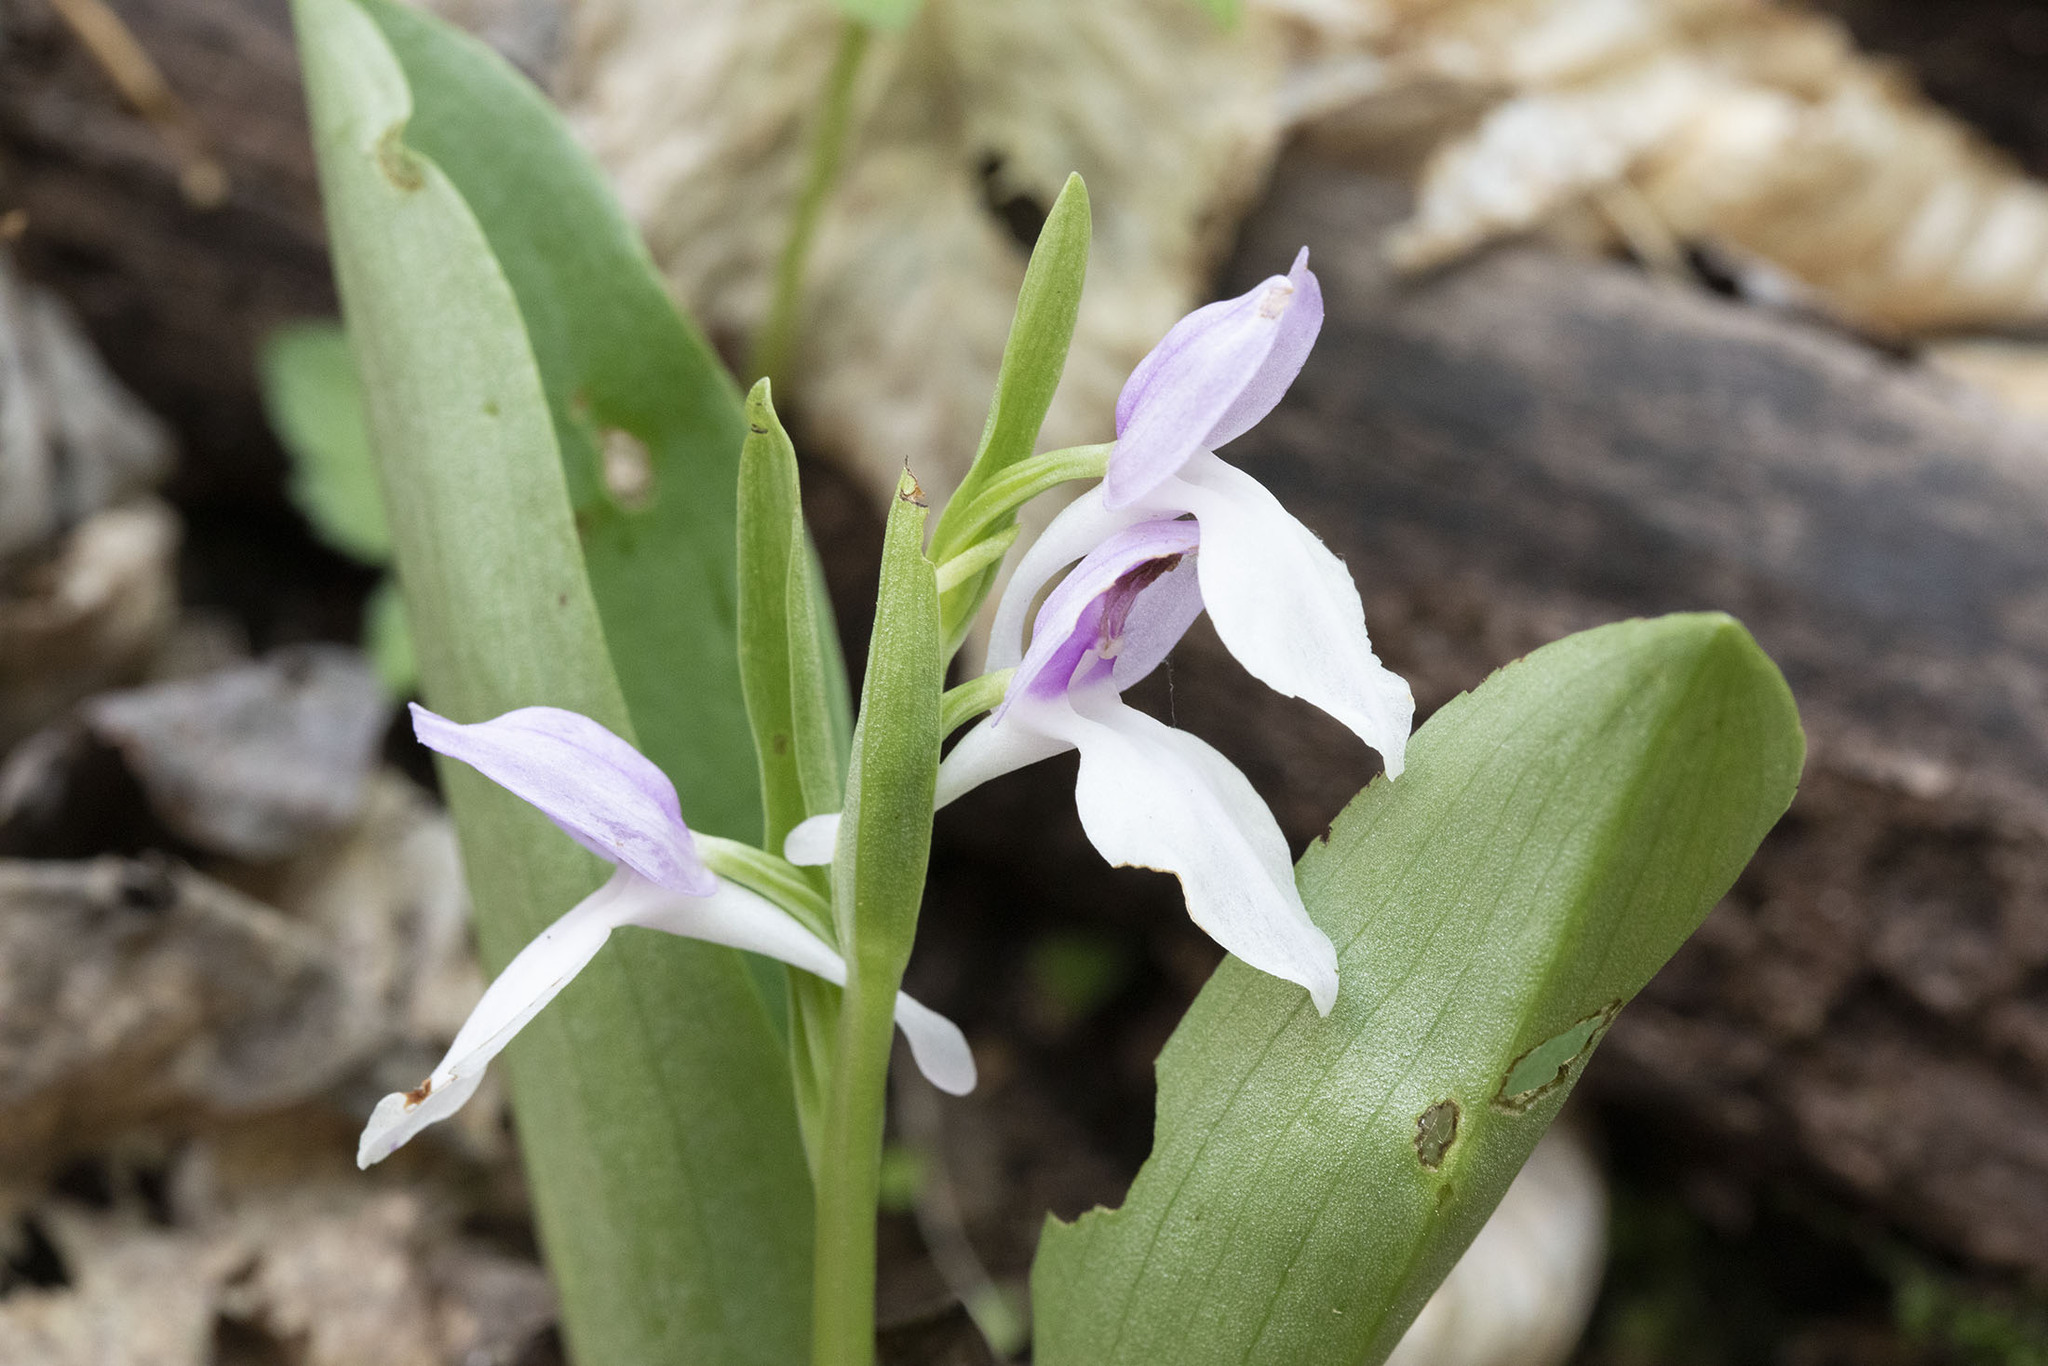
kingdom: Plantae
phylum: Tracheophyta
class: Liliopsida
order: Asparagales
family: Orchidaceae
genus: Galearis
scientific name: Galearis spectabilis
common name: Purple-hooded orchis
